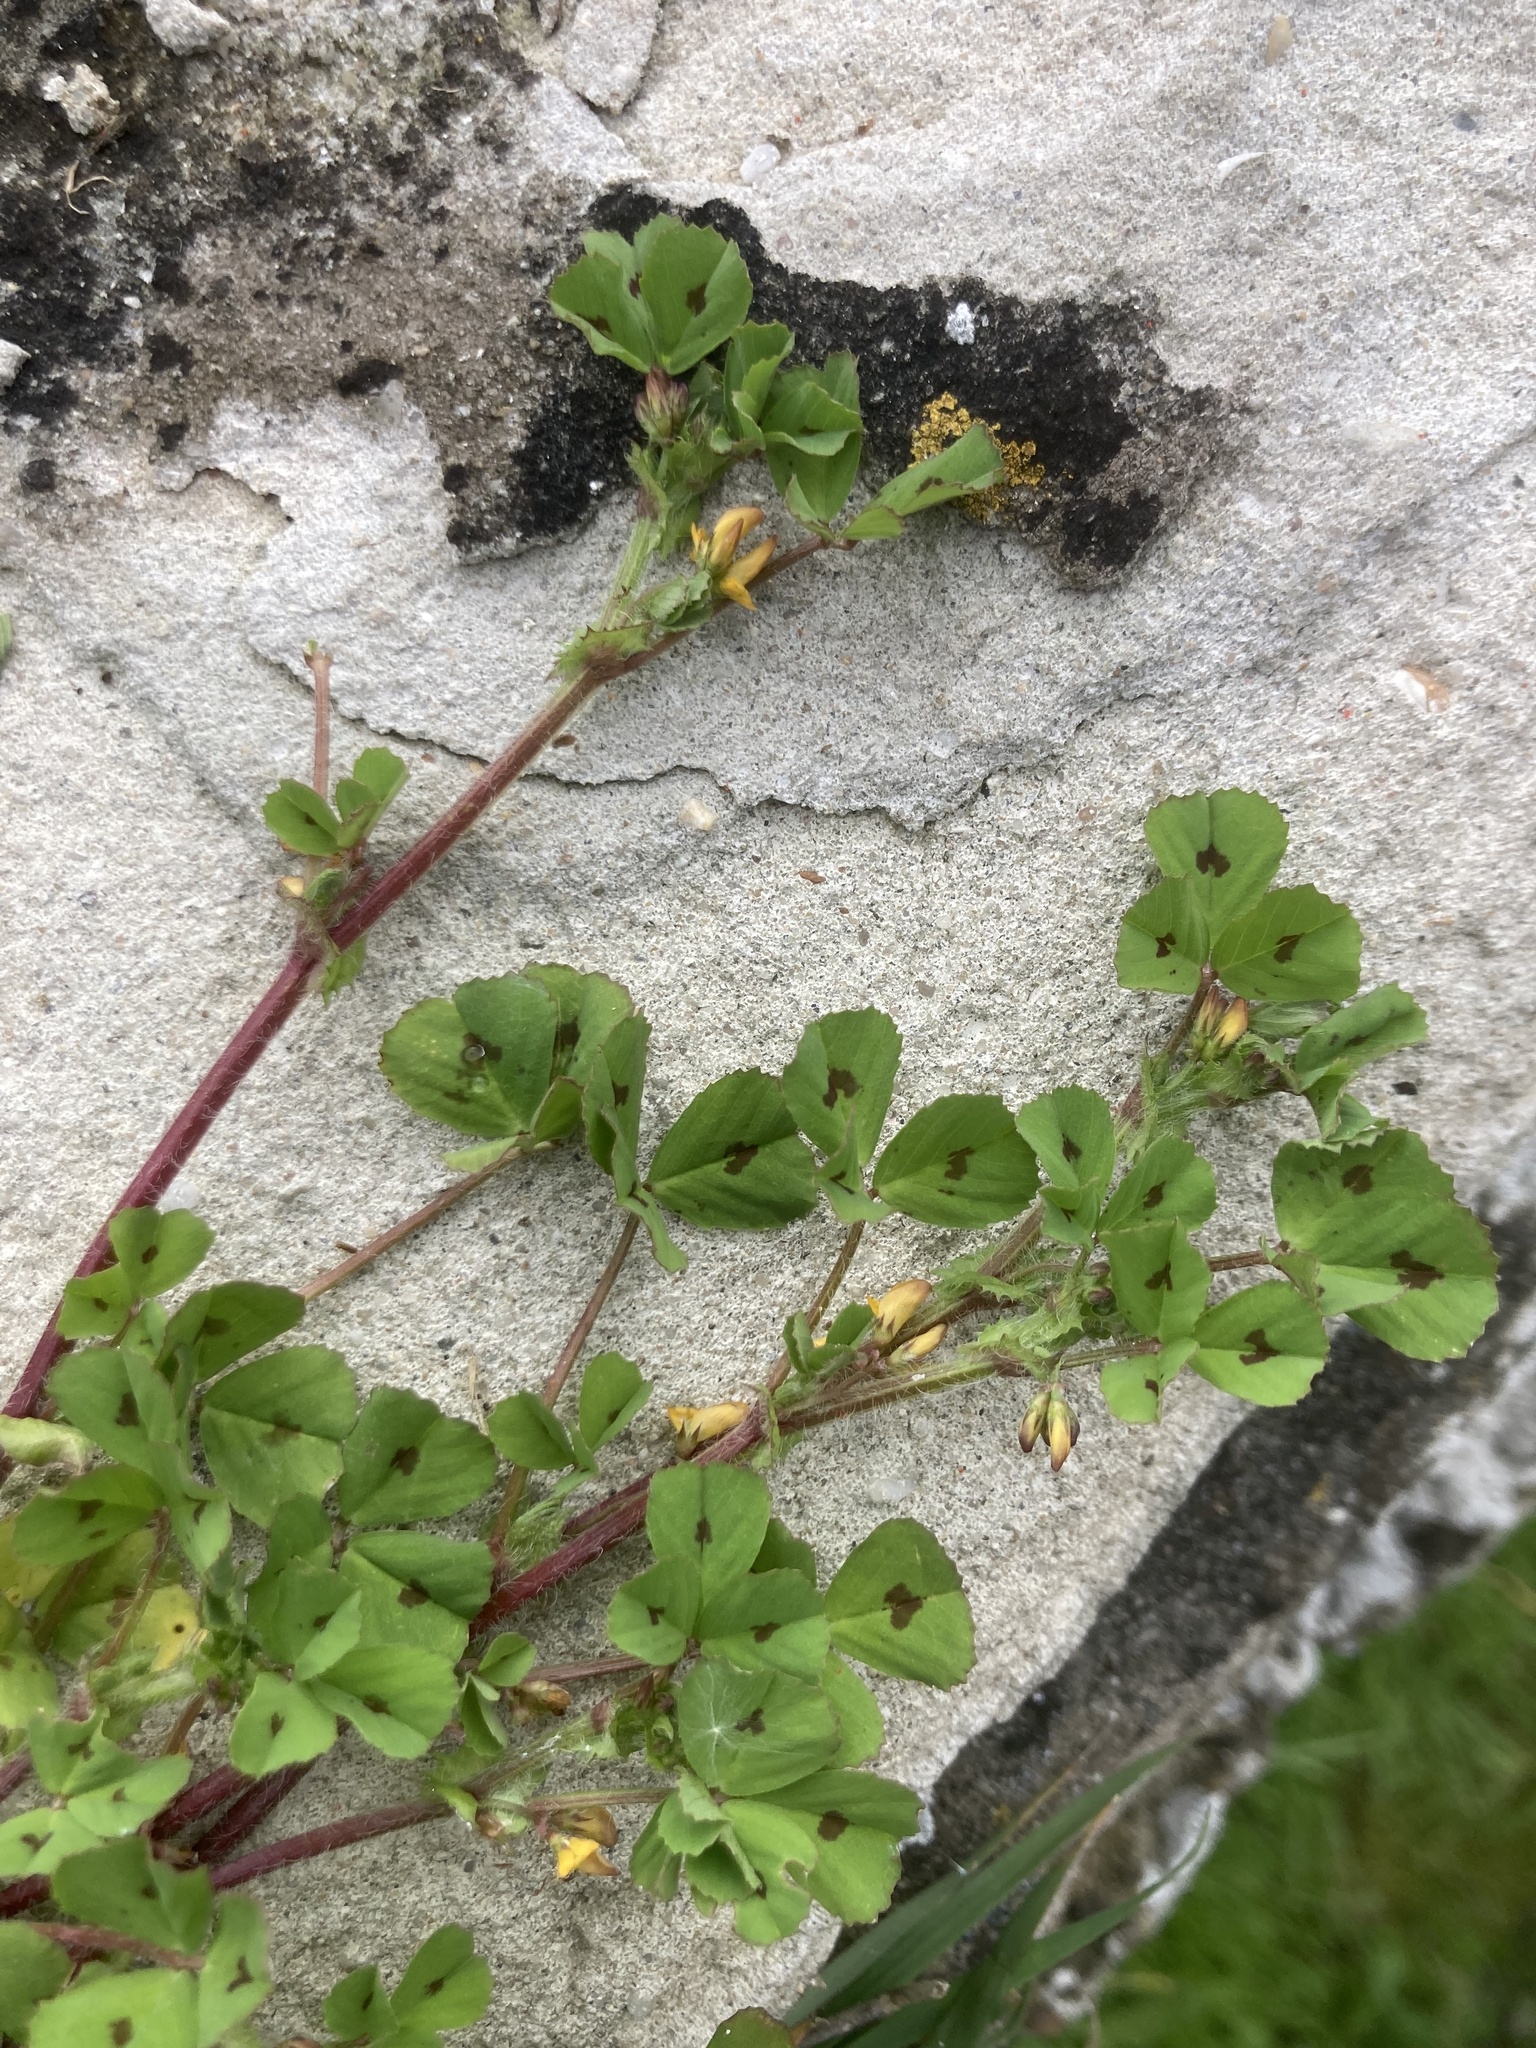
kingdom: Plantae
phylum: Tracheophyta
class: Magnoliopsida
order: Fabales
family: Fabaceae
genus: Medicago
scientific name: Medicago arabica
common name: Spotted medick
